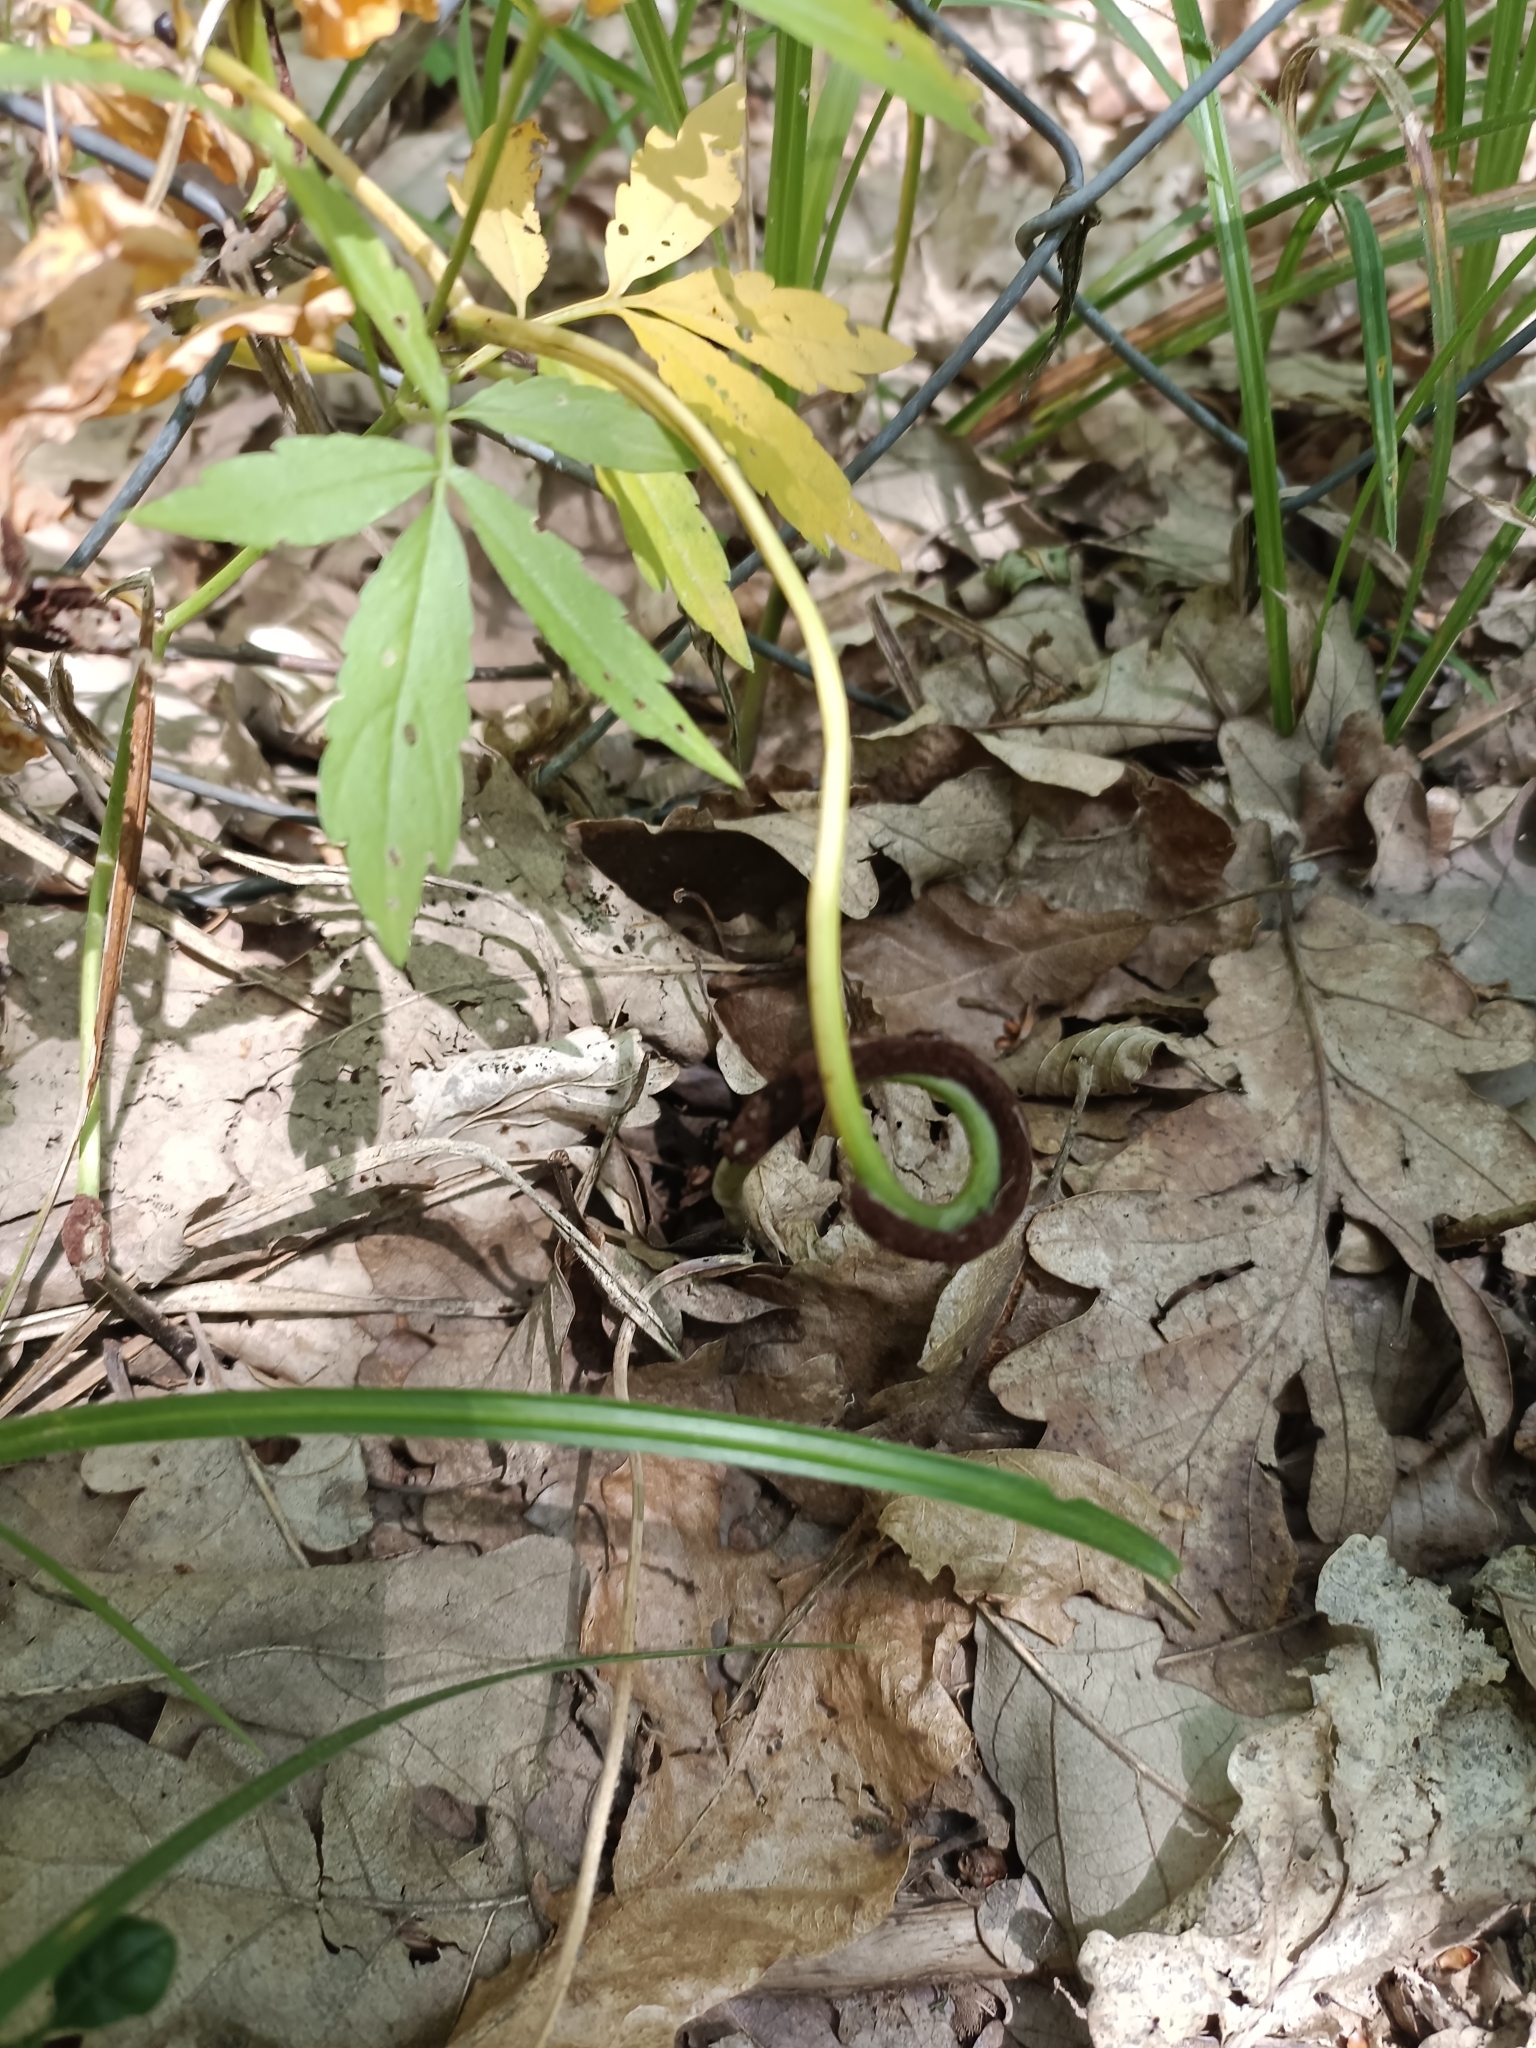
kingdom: Fungi
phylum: Basidiomycota
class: Pucciniomycetes
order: Pucciniales
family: Pucciniaceae
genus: Puccinia
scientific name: Puccinia dentariae
